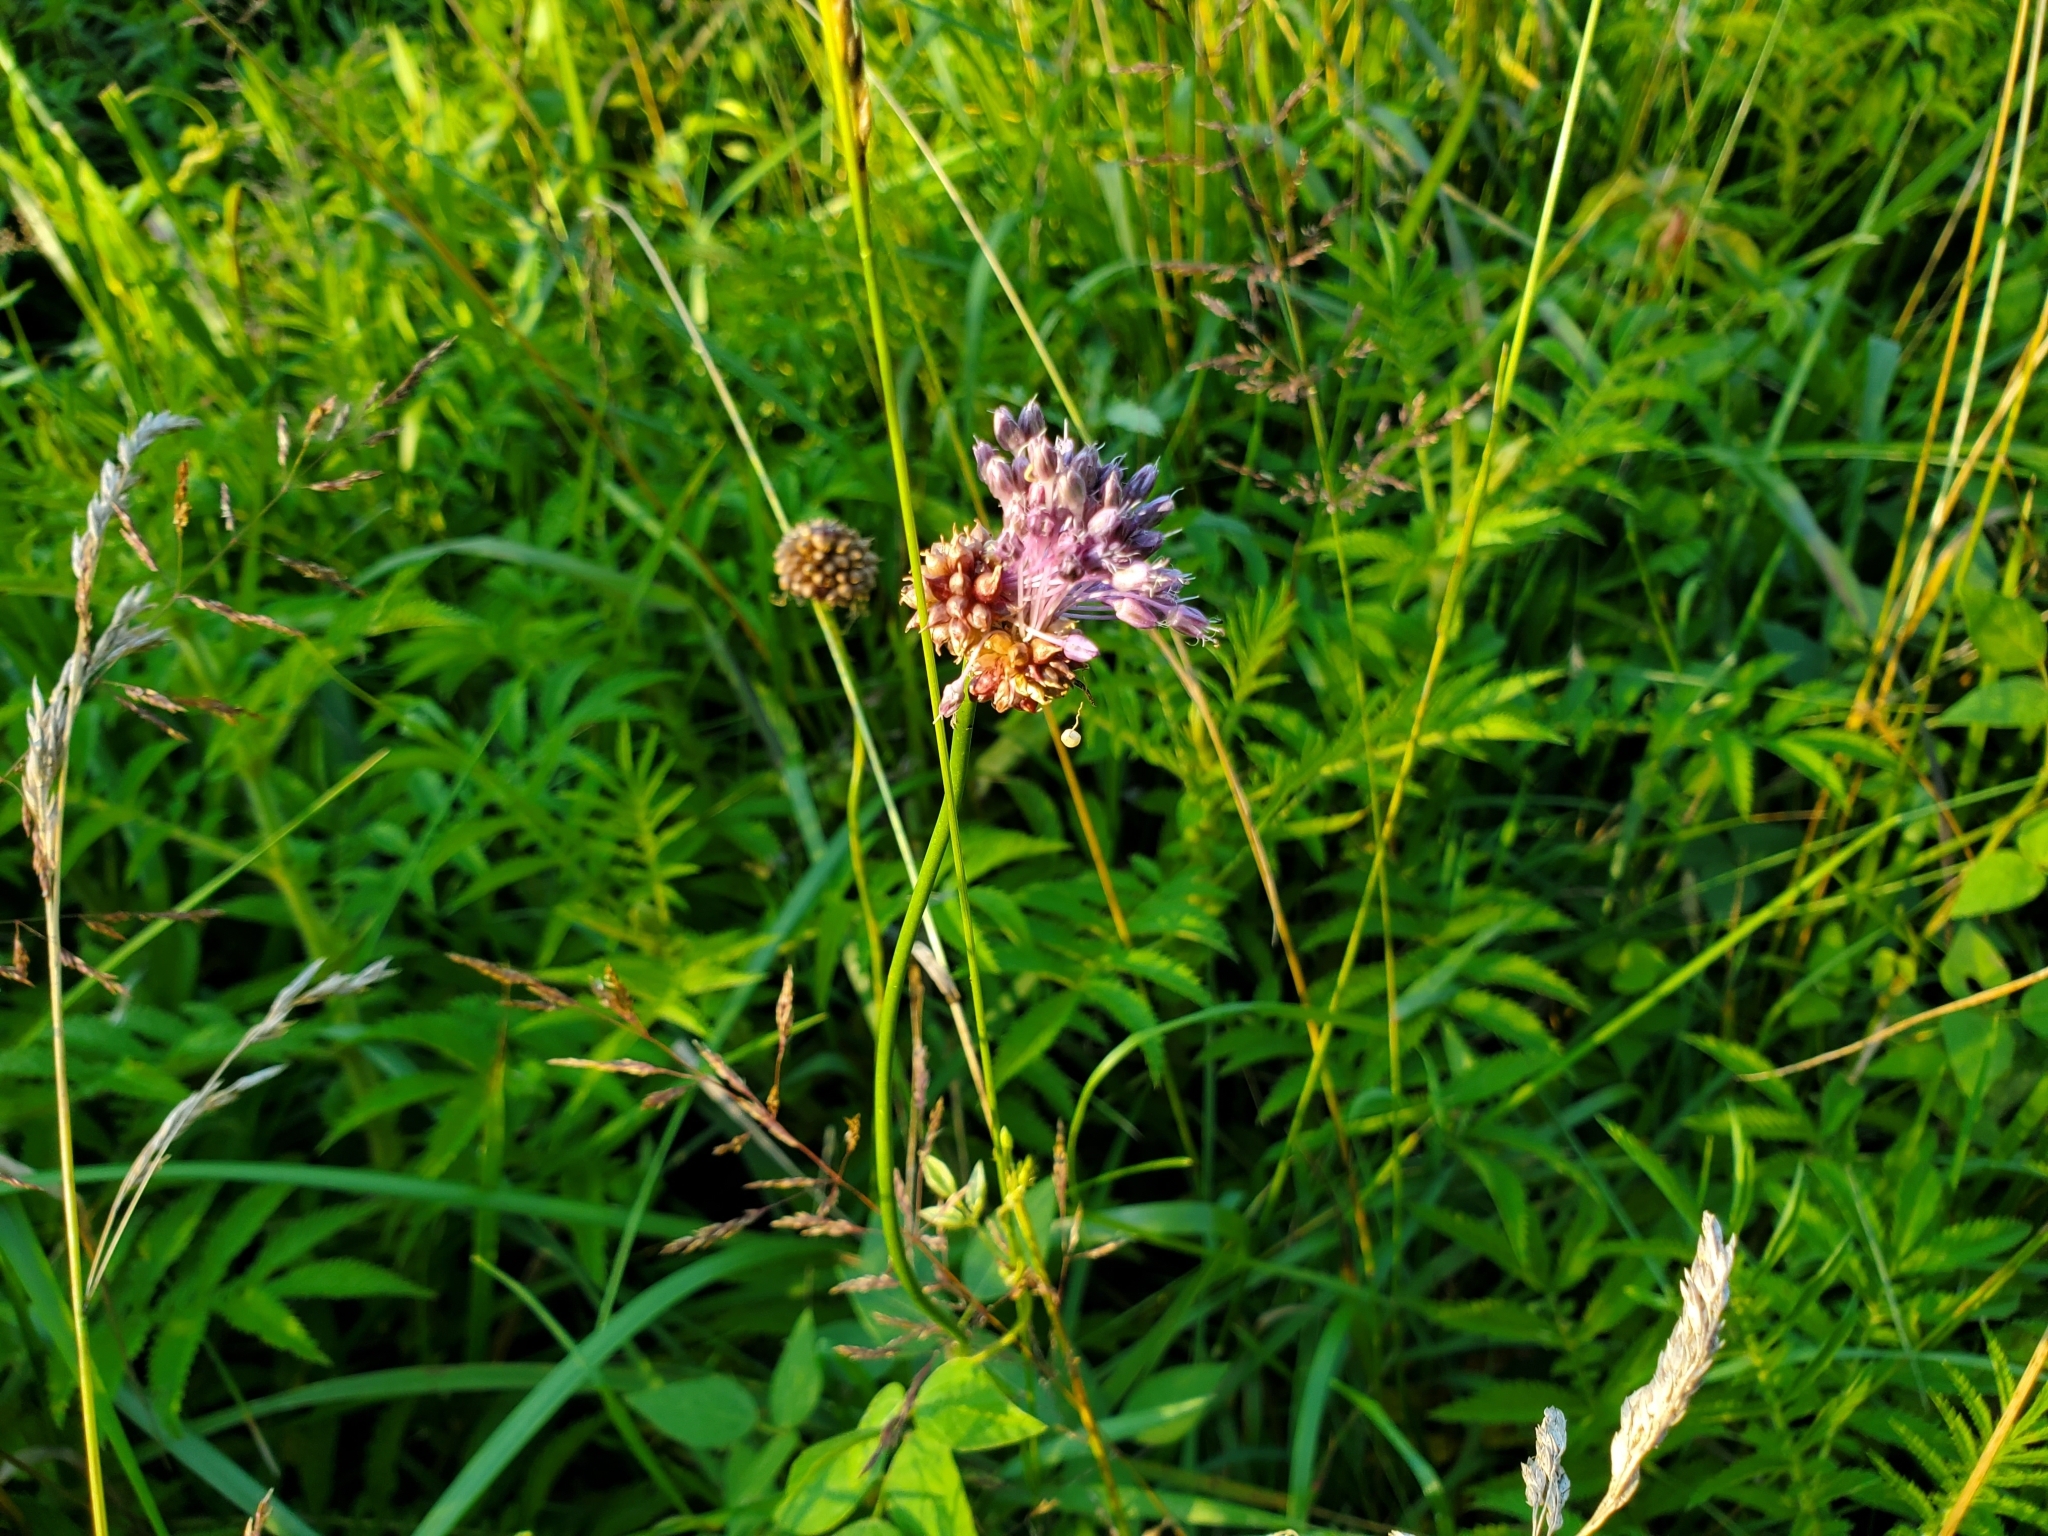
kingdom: Plantae
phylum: Tracheophyta
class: Liliopsida
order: Asparagales
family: Amaryllidaceae
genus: Allium
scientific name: Allium vineale
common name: Crow garlic
